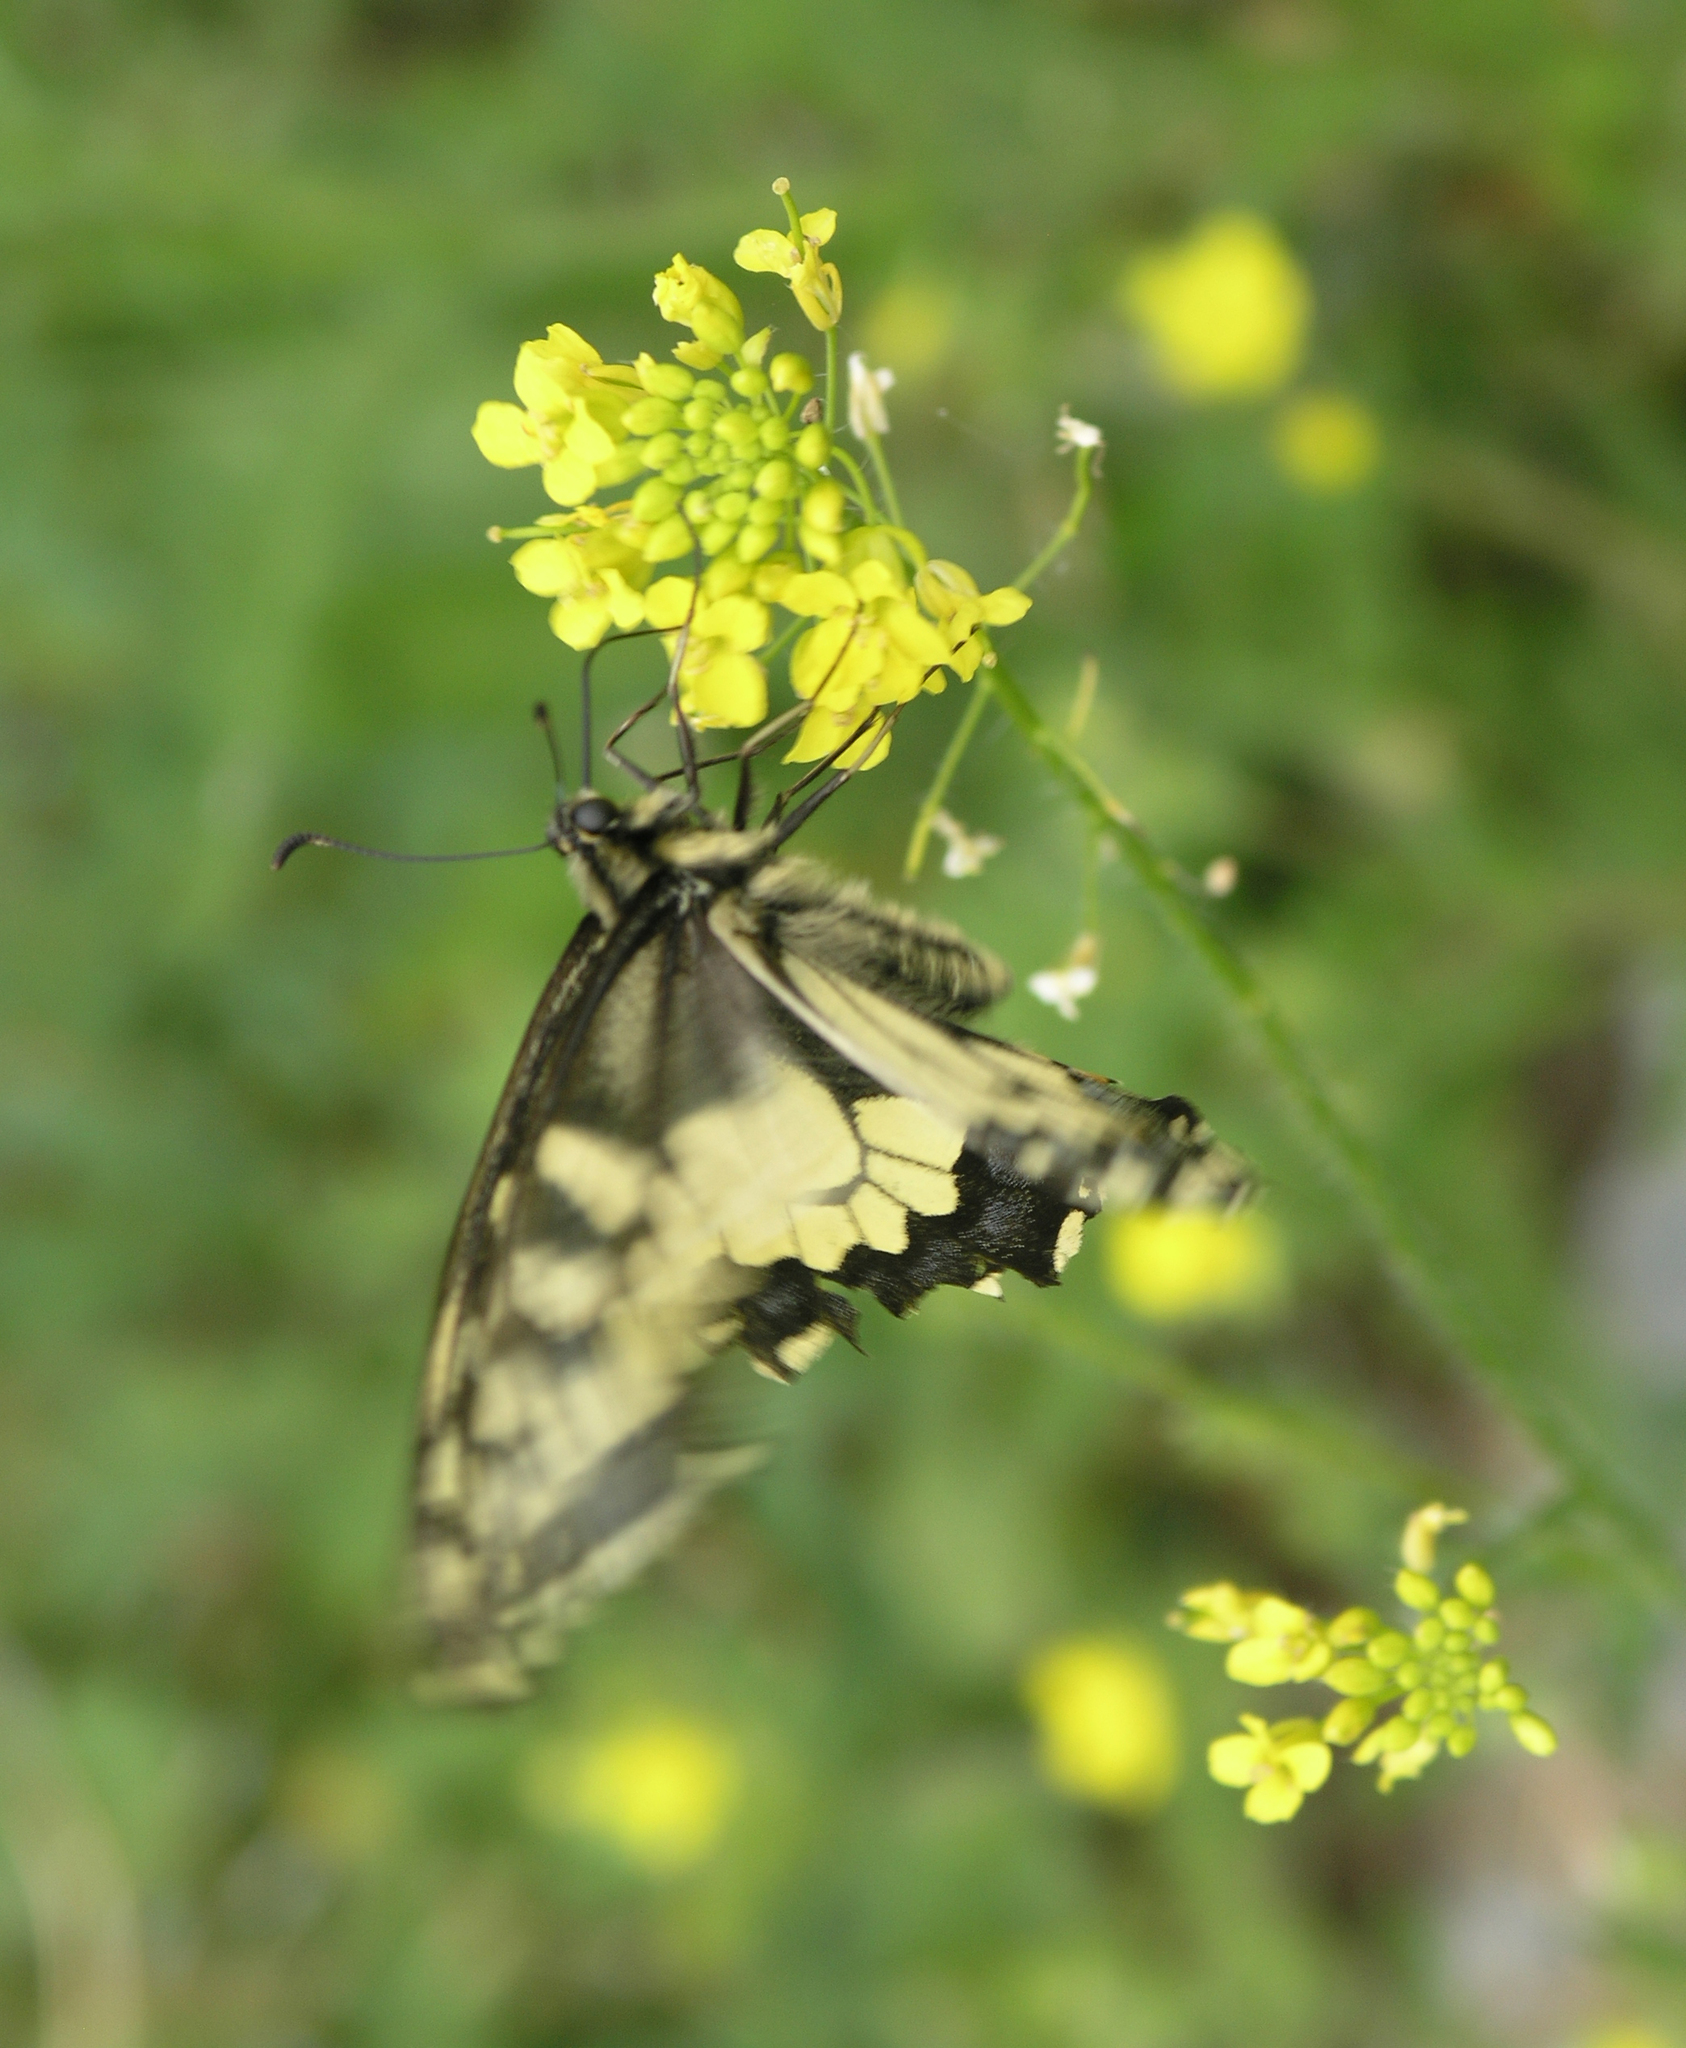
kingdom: Animalia
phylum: Arthropoda
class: Insecta
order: Lepidoptera
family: Papilionidae
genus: Papilio
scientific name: Papilio machaon
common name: Swallowtail
